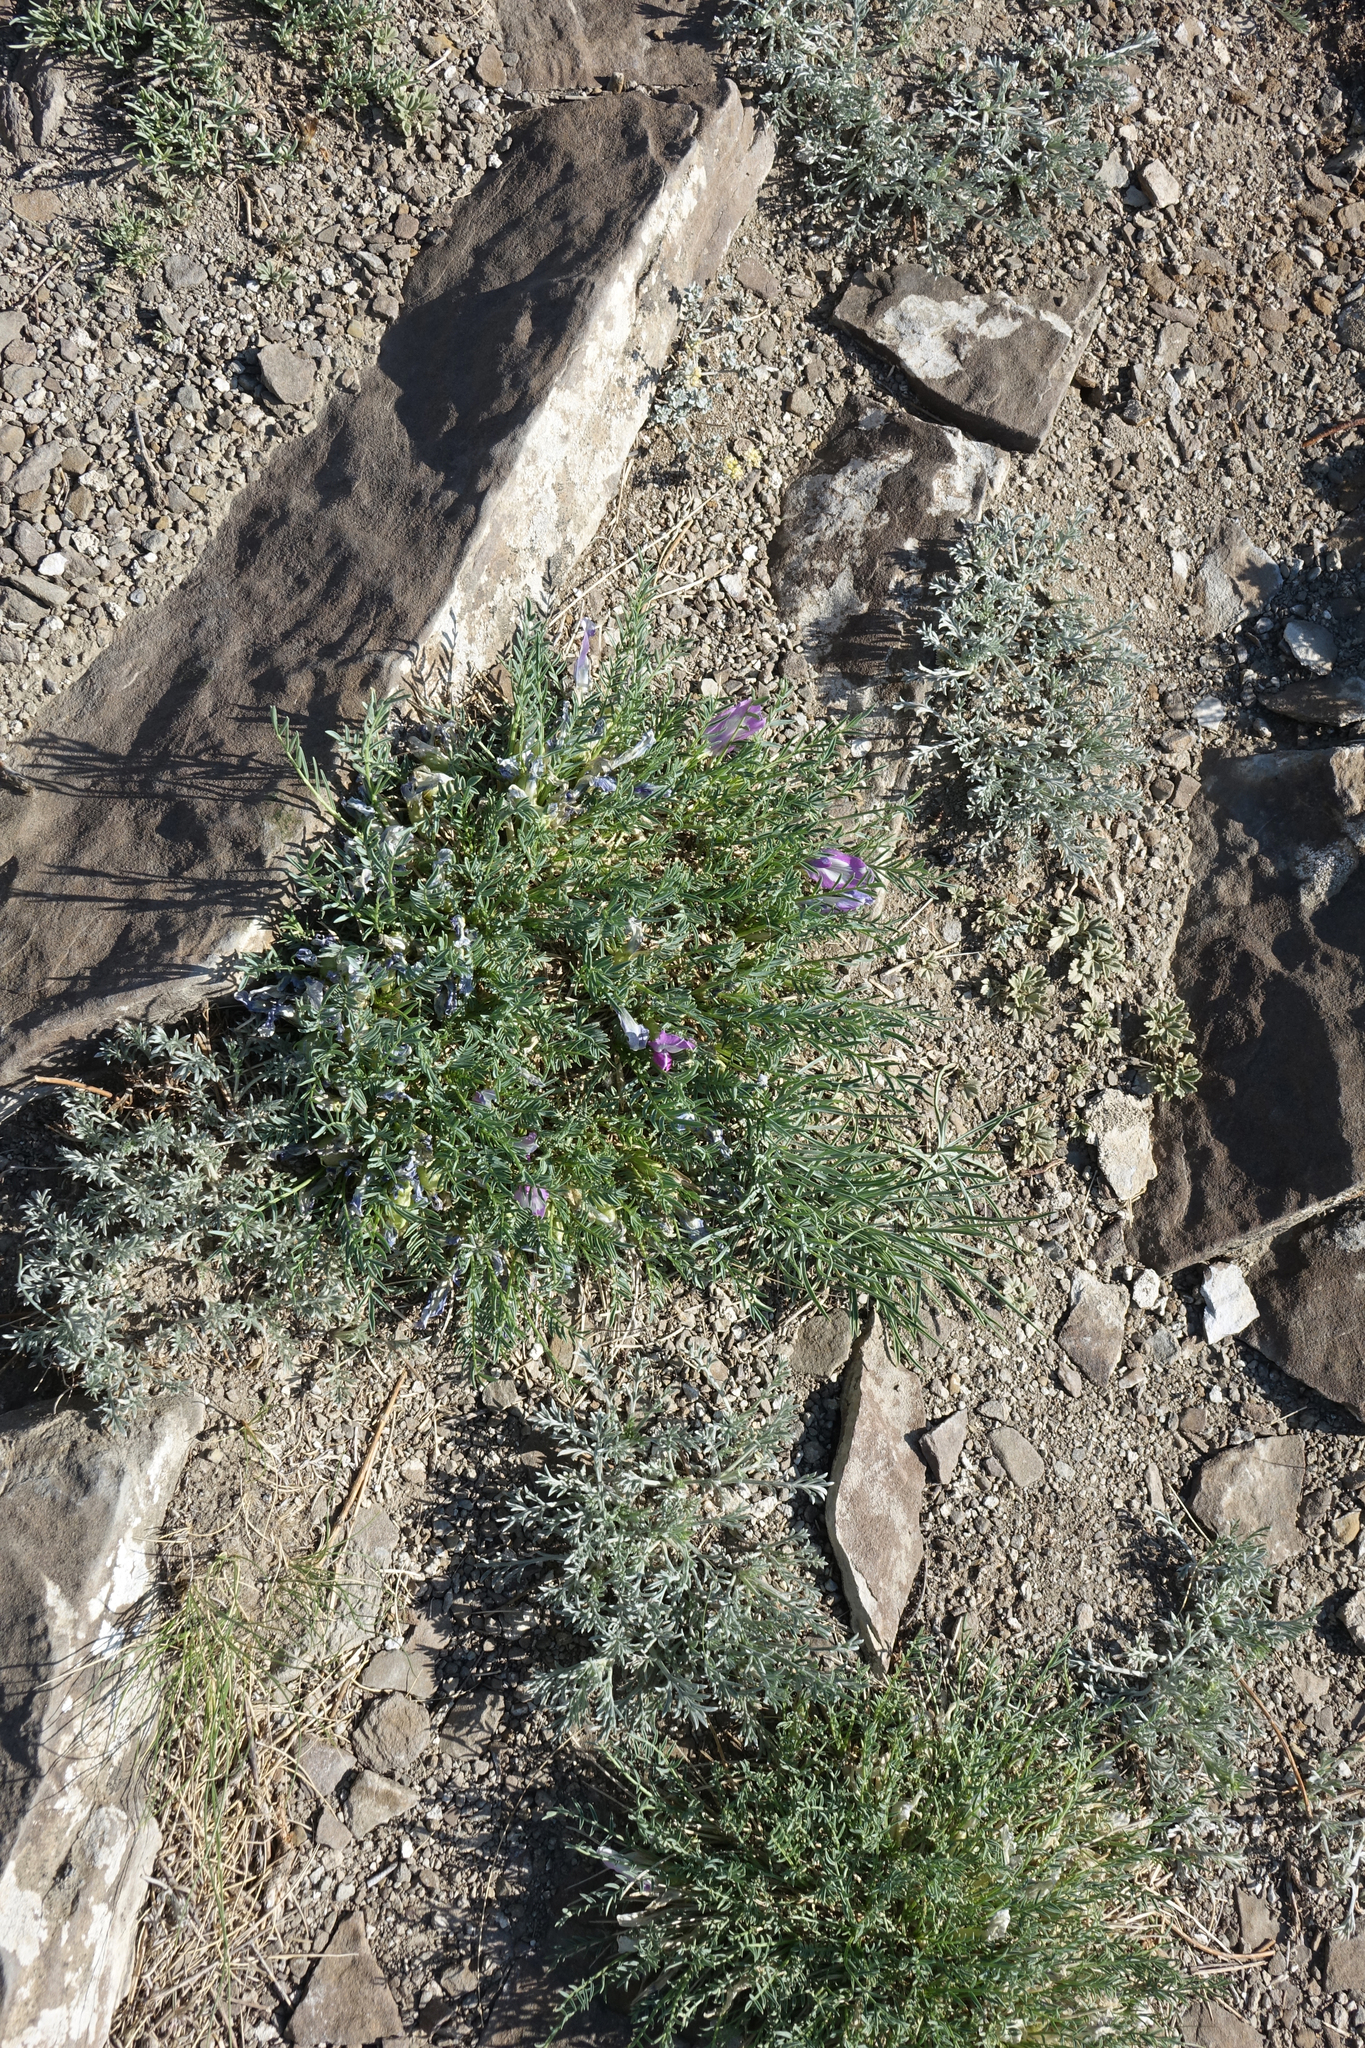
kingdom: Plantae
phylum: Tracheophyta
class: Magnoliopsida
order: Fabales
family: Fabaceae
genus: Oxytropis
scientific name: Oxytropis squammulosa
